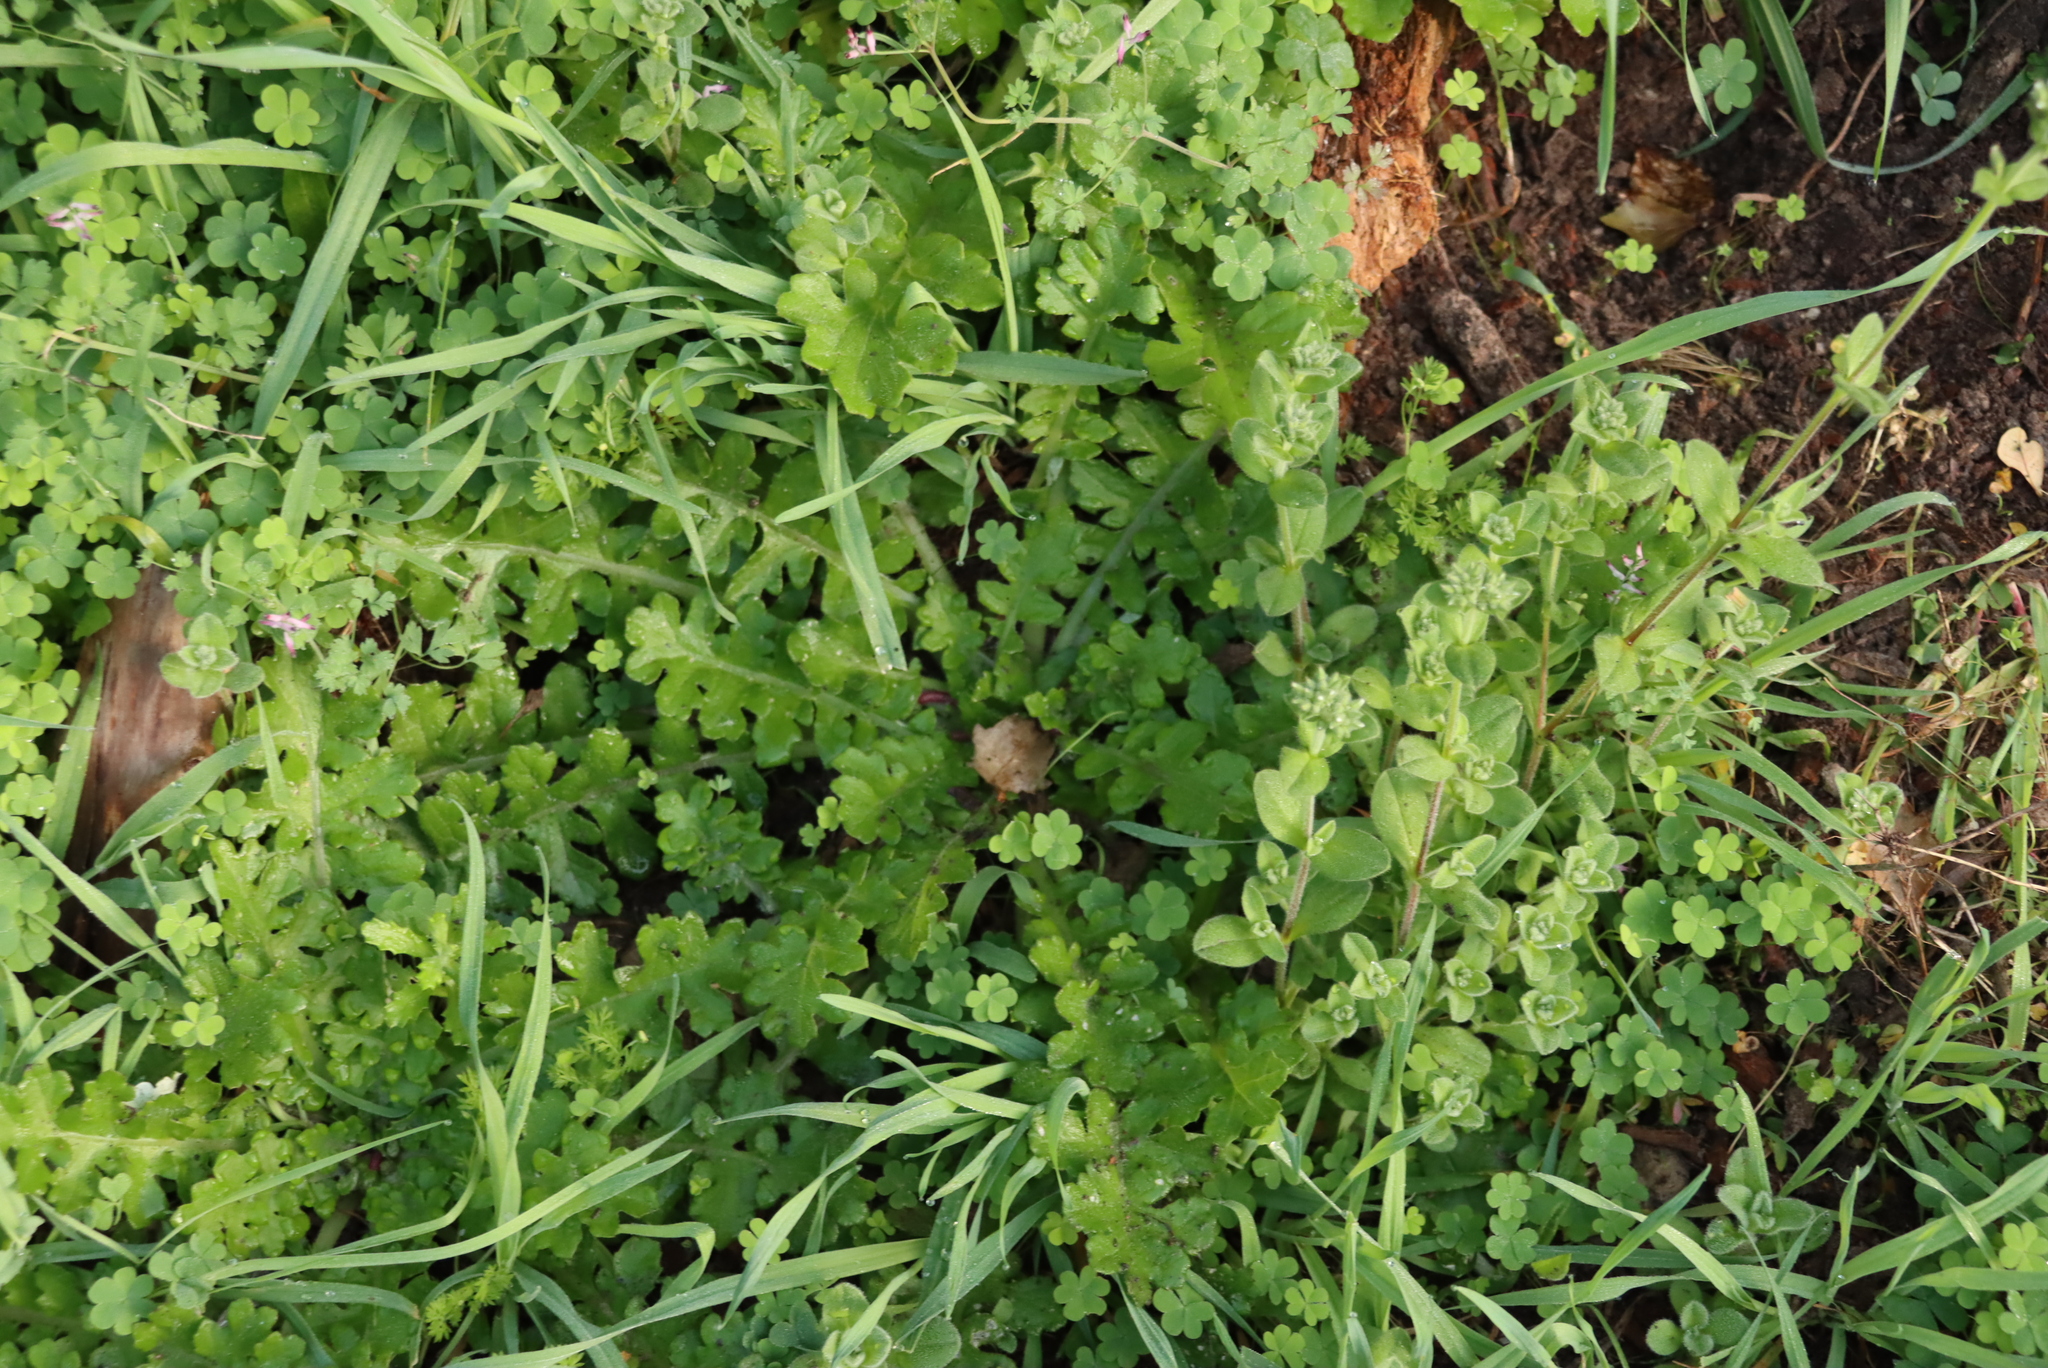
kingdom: Plantae
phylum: Tracheophyta
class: Magnoliopsida
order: Asterales
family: Asteraceae
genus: Arctotheca
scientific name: Arctotheca prostrata
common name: Capeweed
